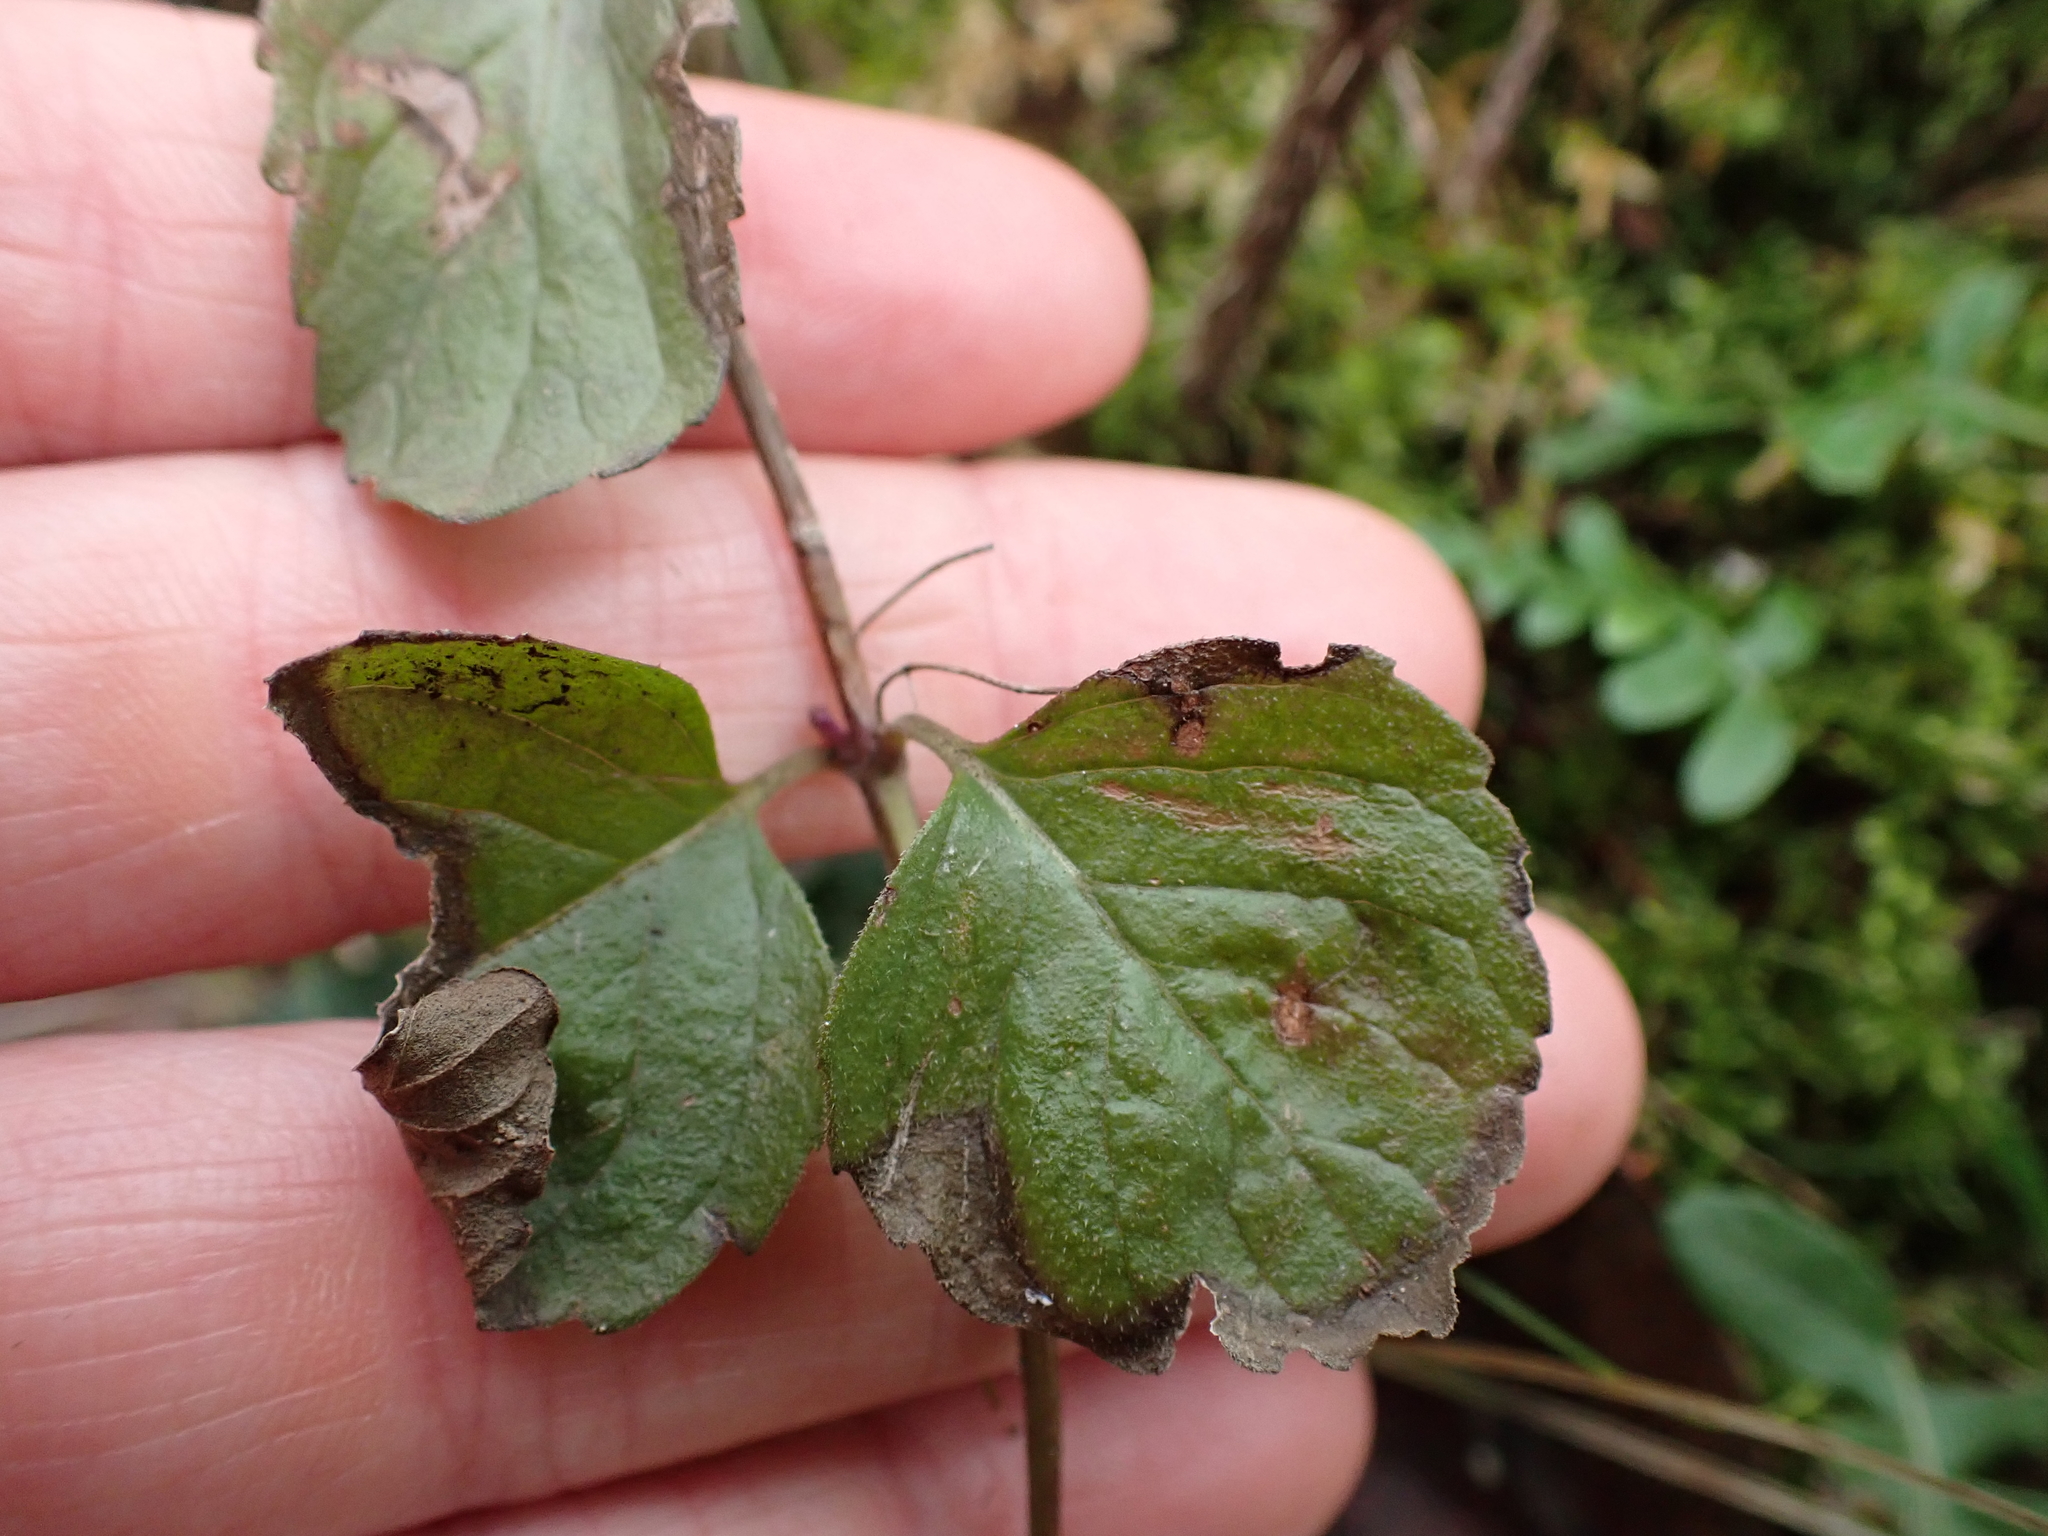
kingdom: Plantae
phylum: Tracheophyta
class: Magnoliopsida
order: Lamiales
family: Lamiaceae
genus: Micromeria
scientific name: Micromeria douglasii
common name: Yerba buena
